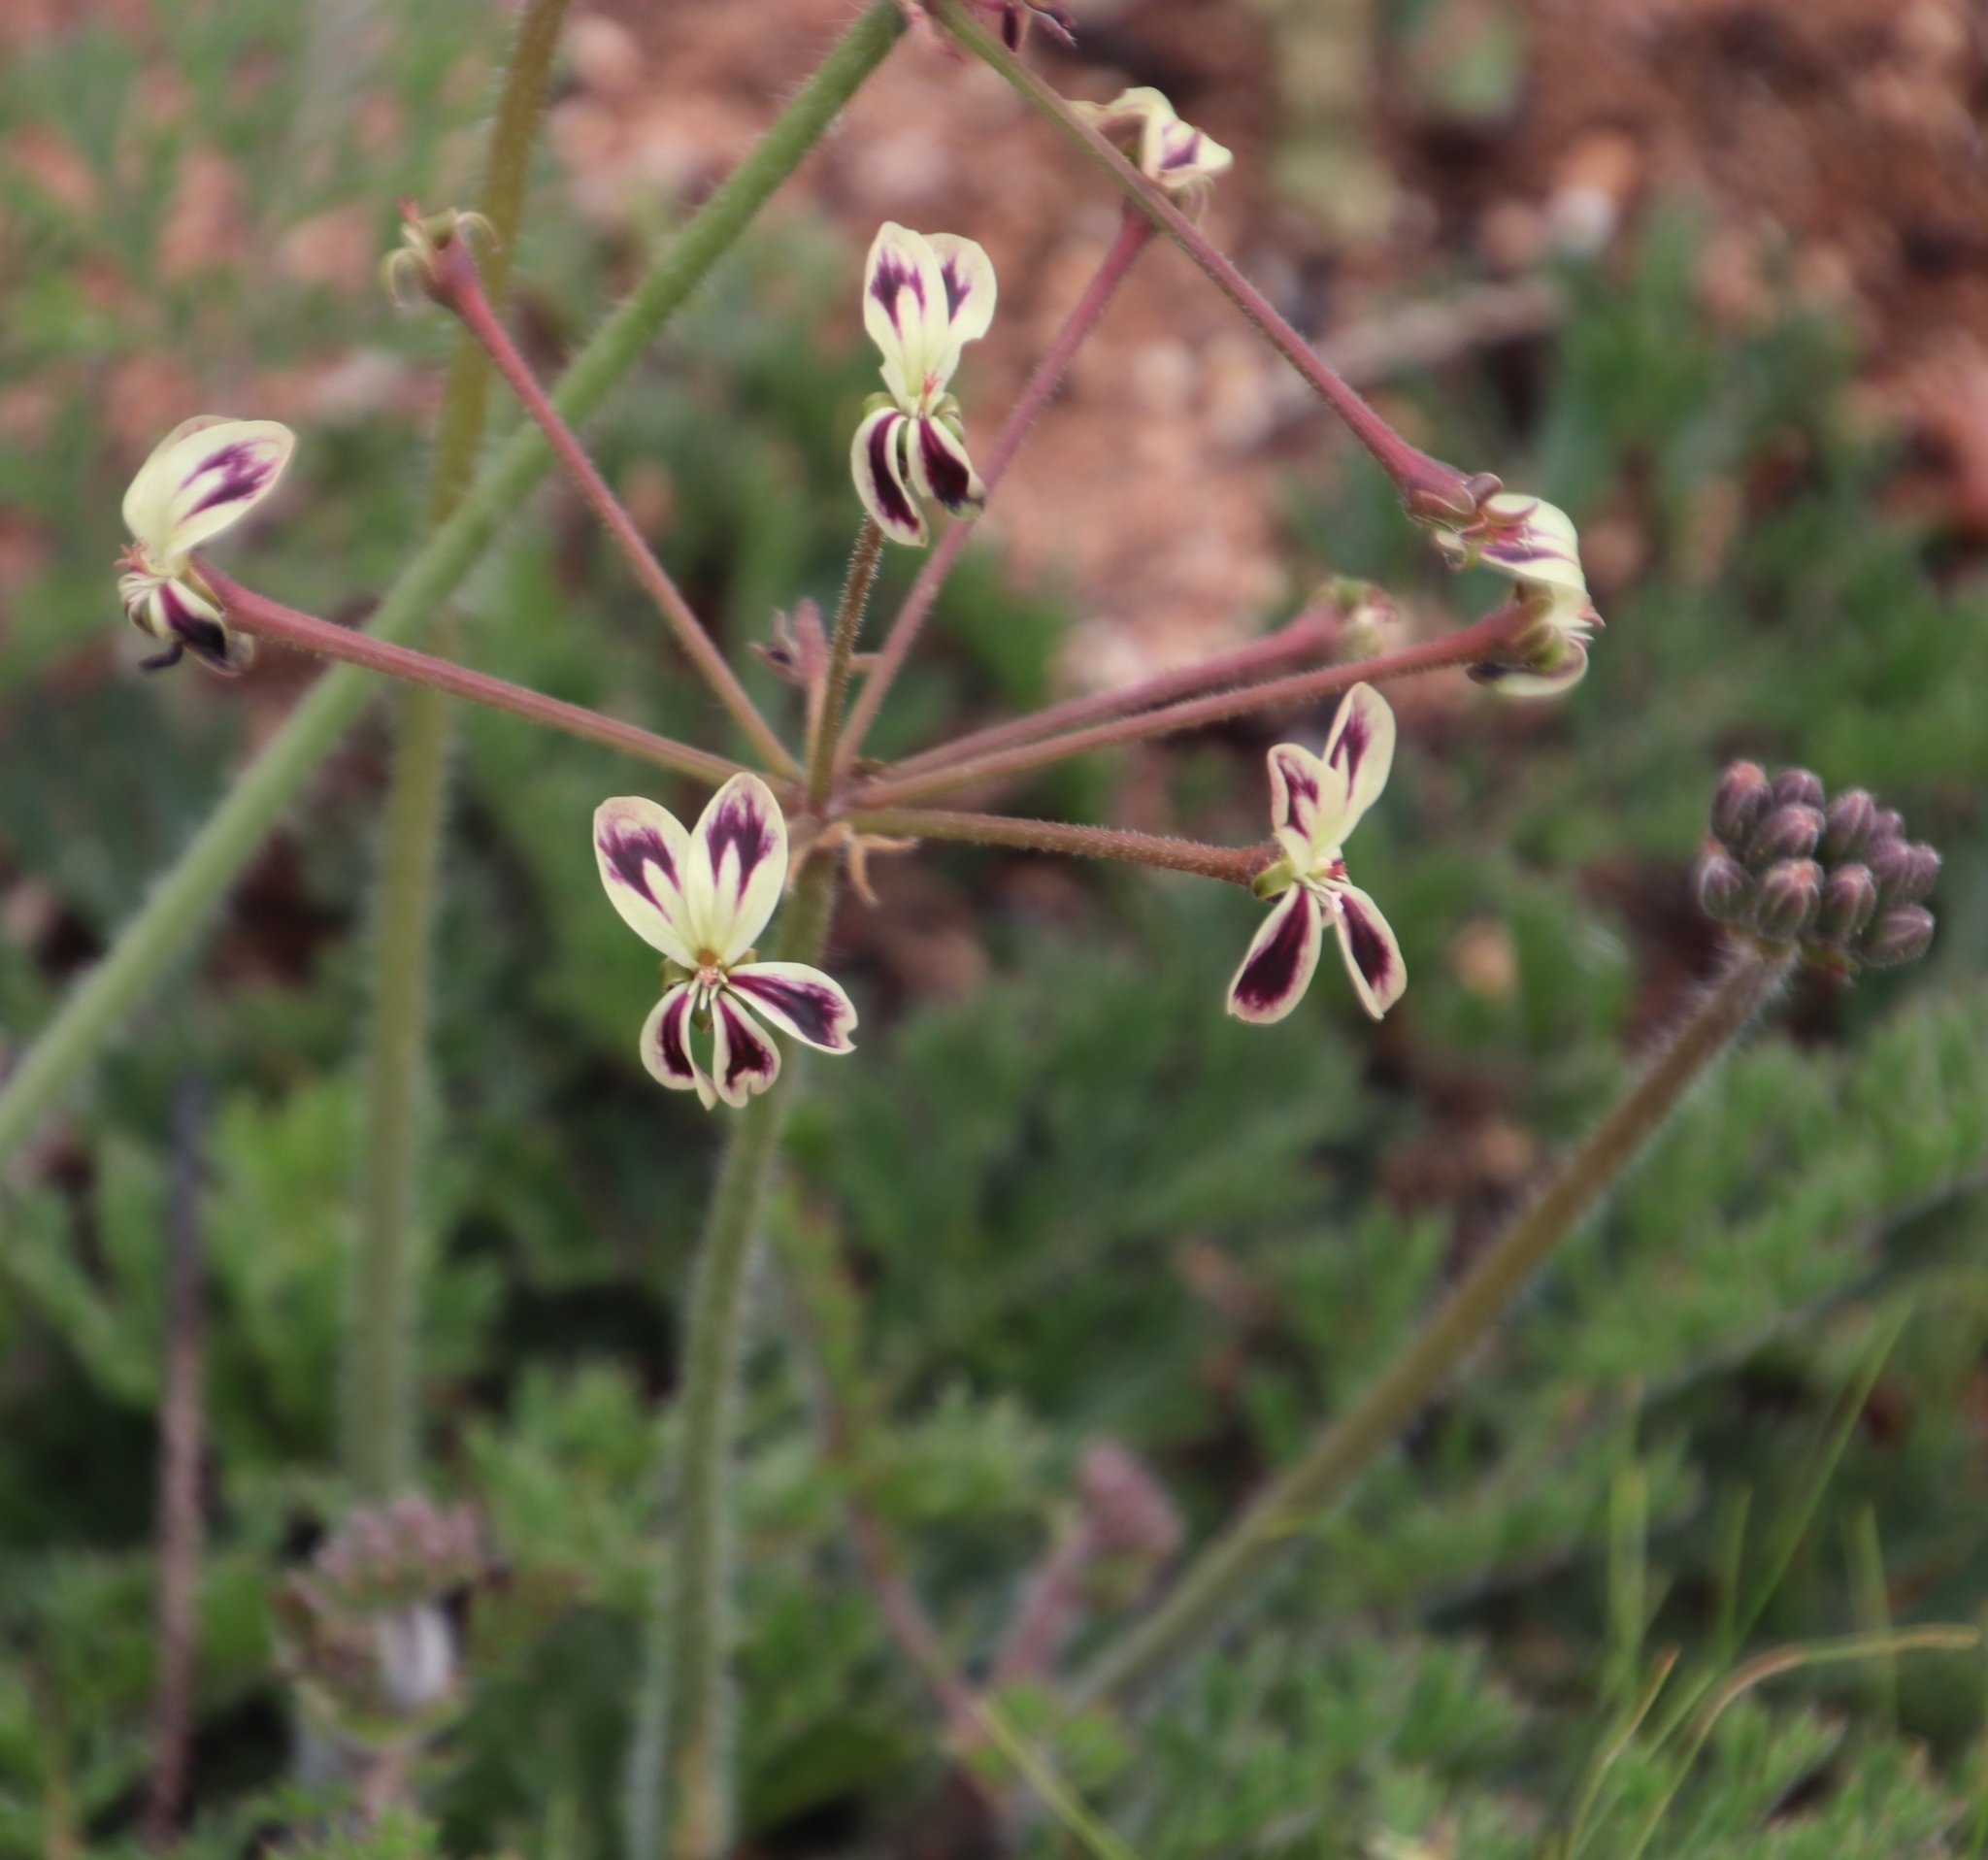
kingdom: Plantae
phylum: Tracheophyta
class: Magnoliopsida
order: Geraniales
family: Geraniaceae
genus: Pelargonium
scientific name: Pelargonium triste
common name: Night-scent pelargonium
